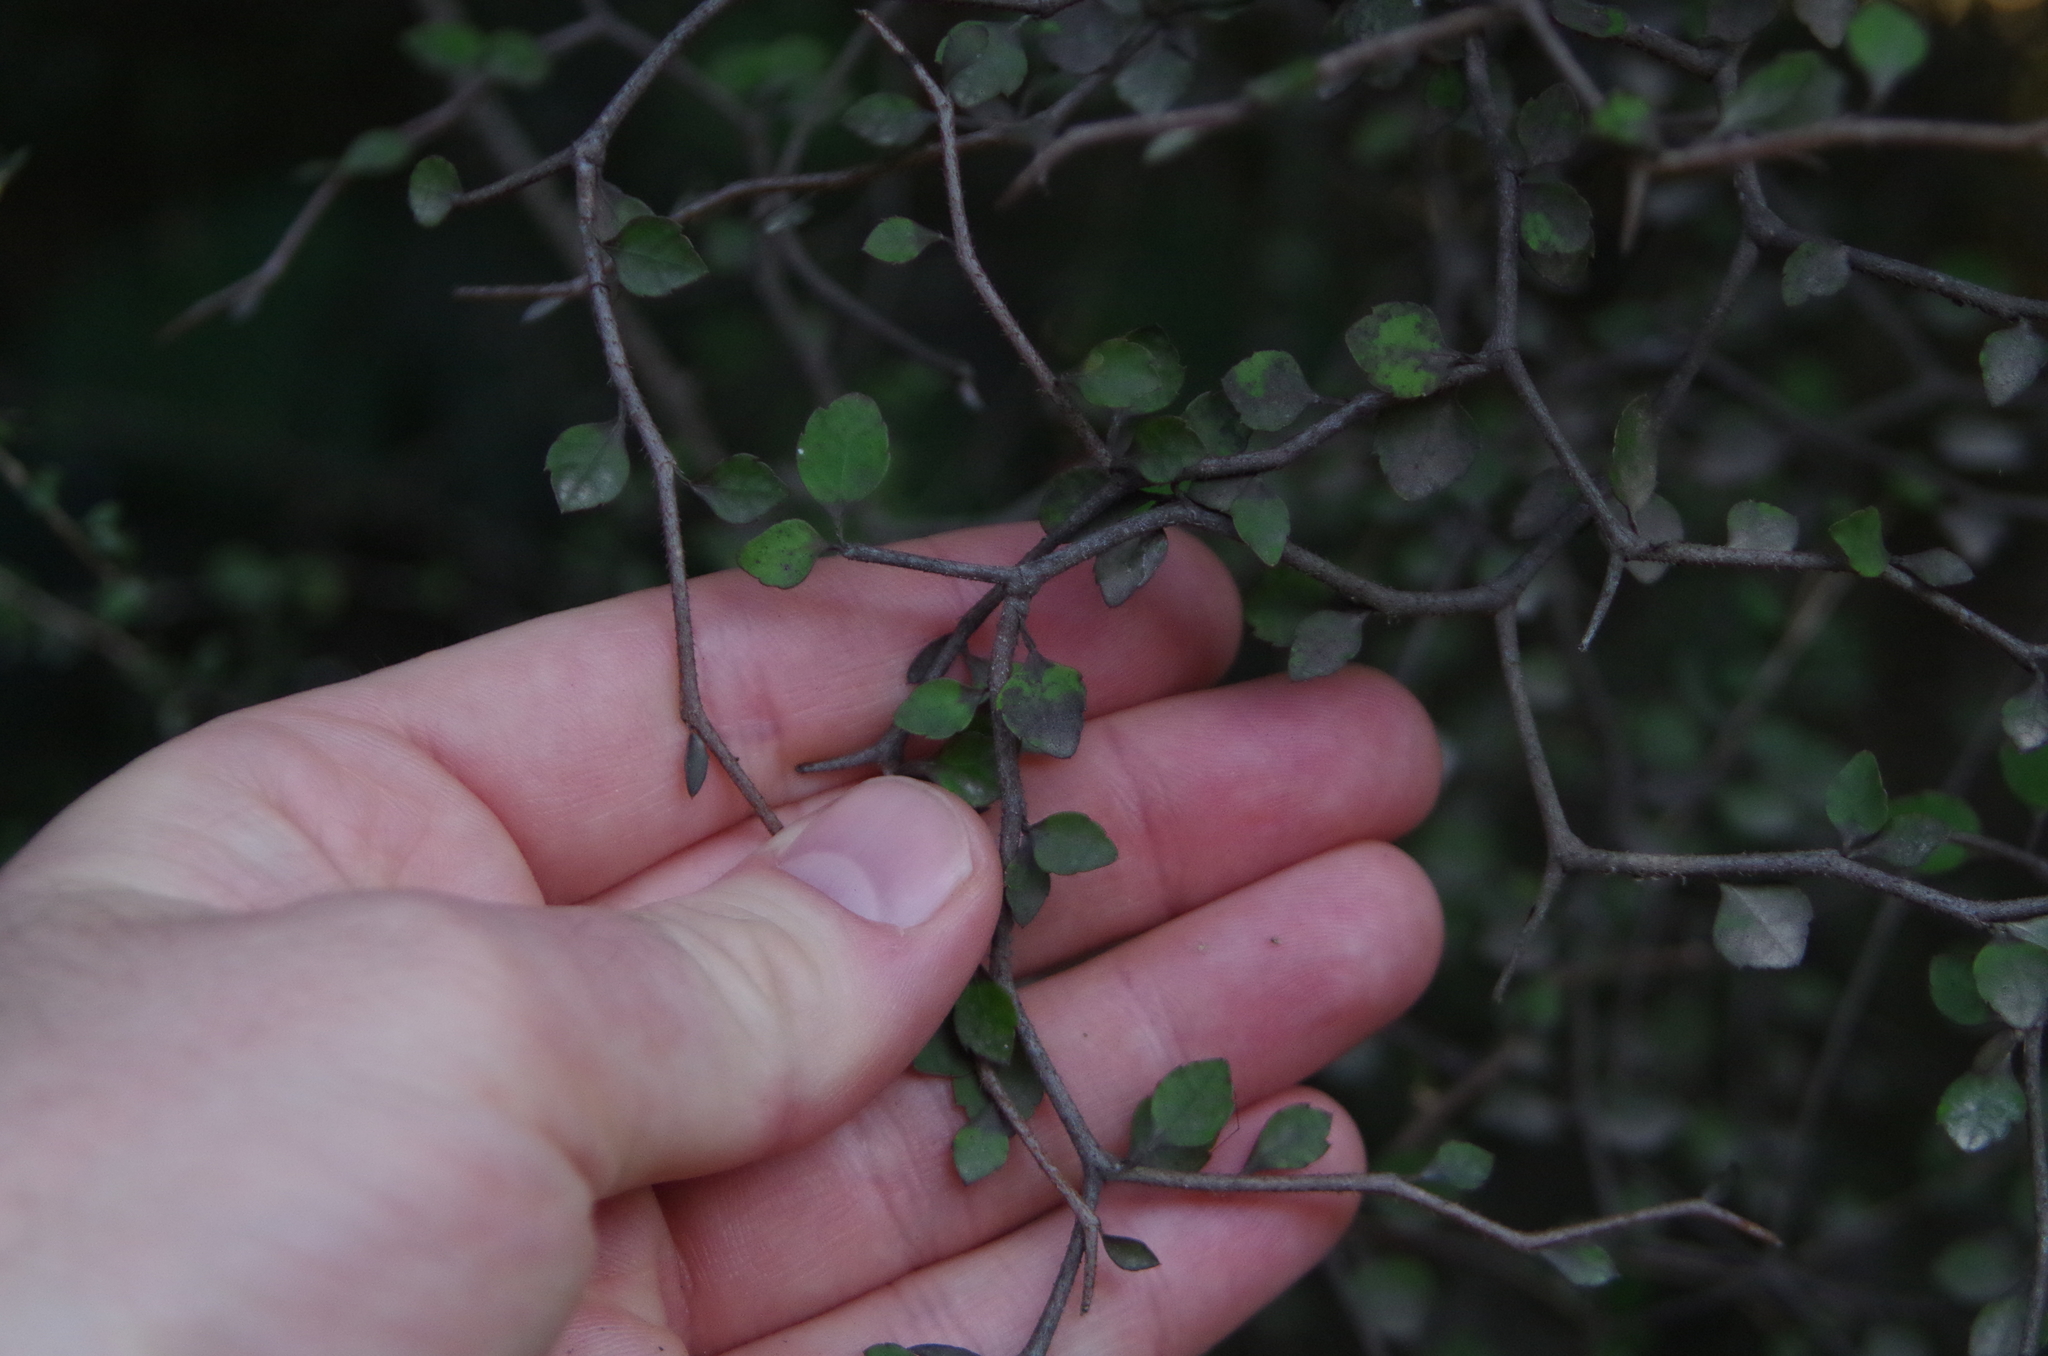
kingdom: Plantae
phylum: Tracheophyta
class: Magnoliopsida
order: Apiales
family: Araliaceae
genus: Raukaua
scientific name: Raukaua anomalus
